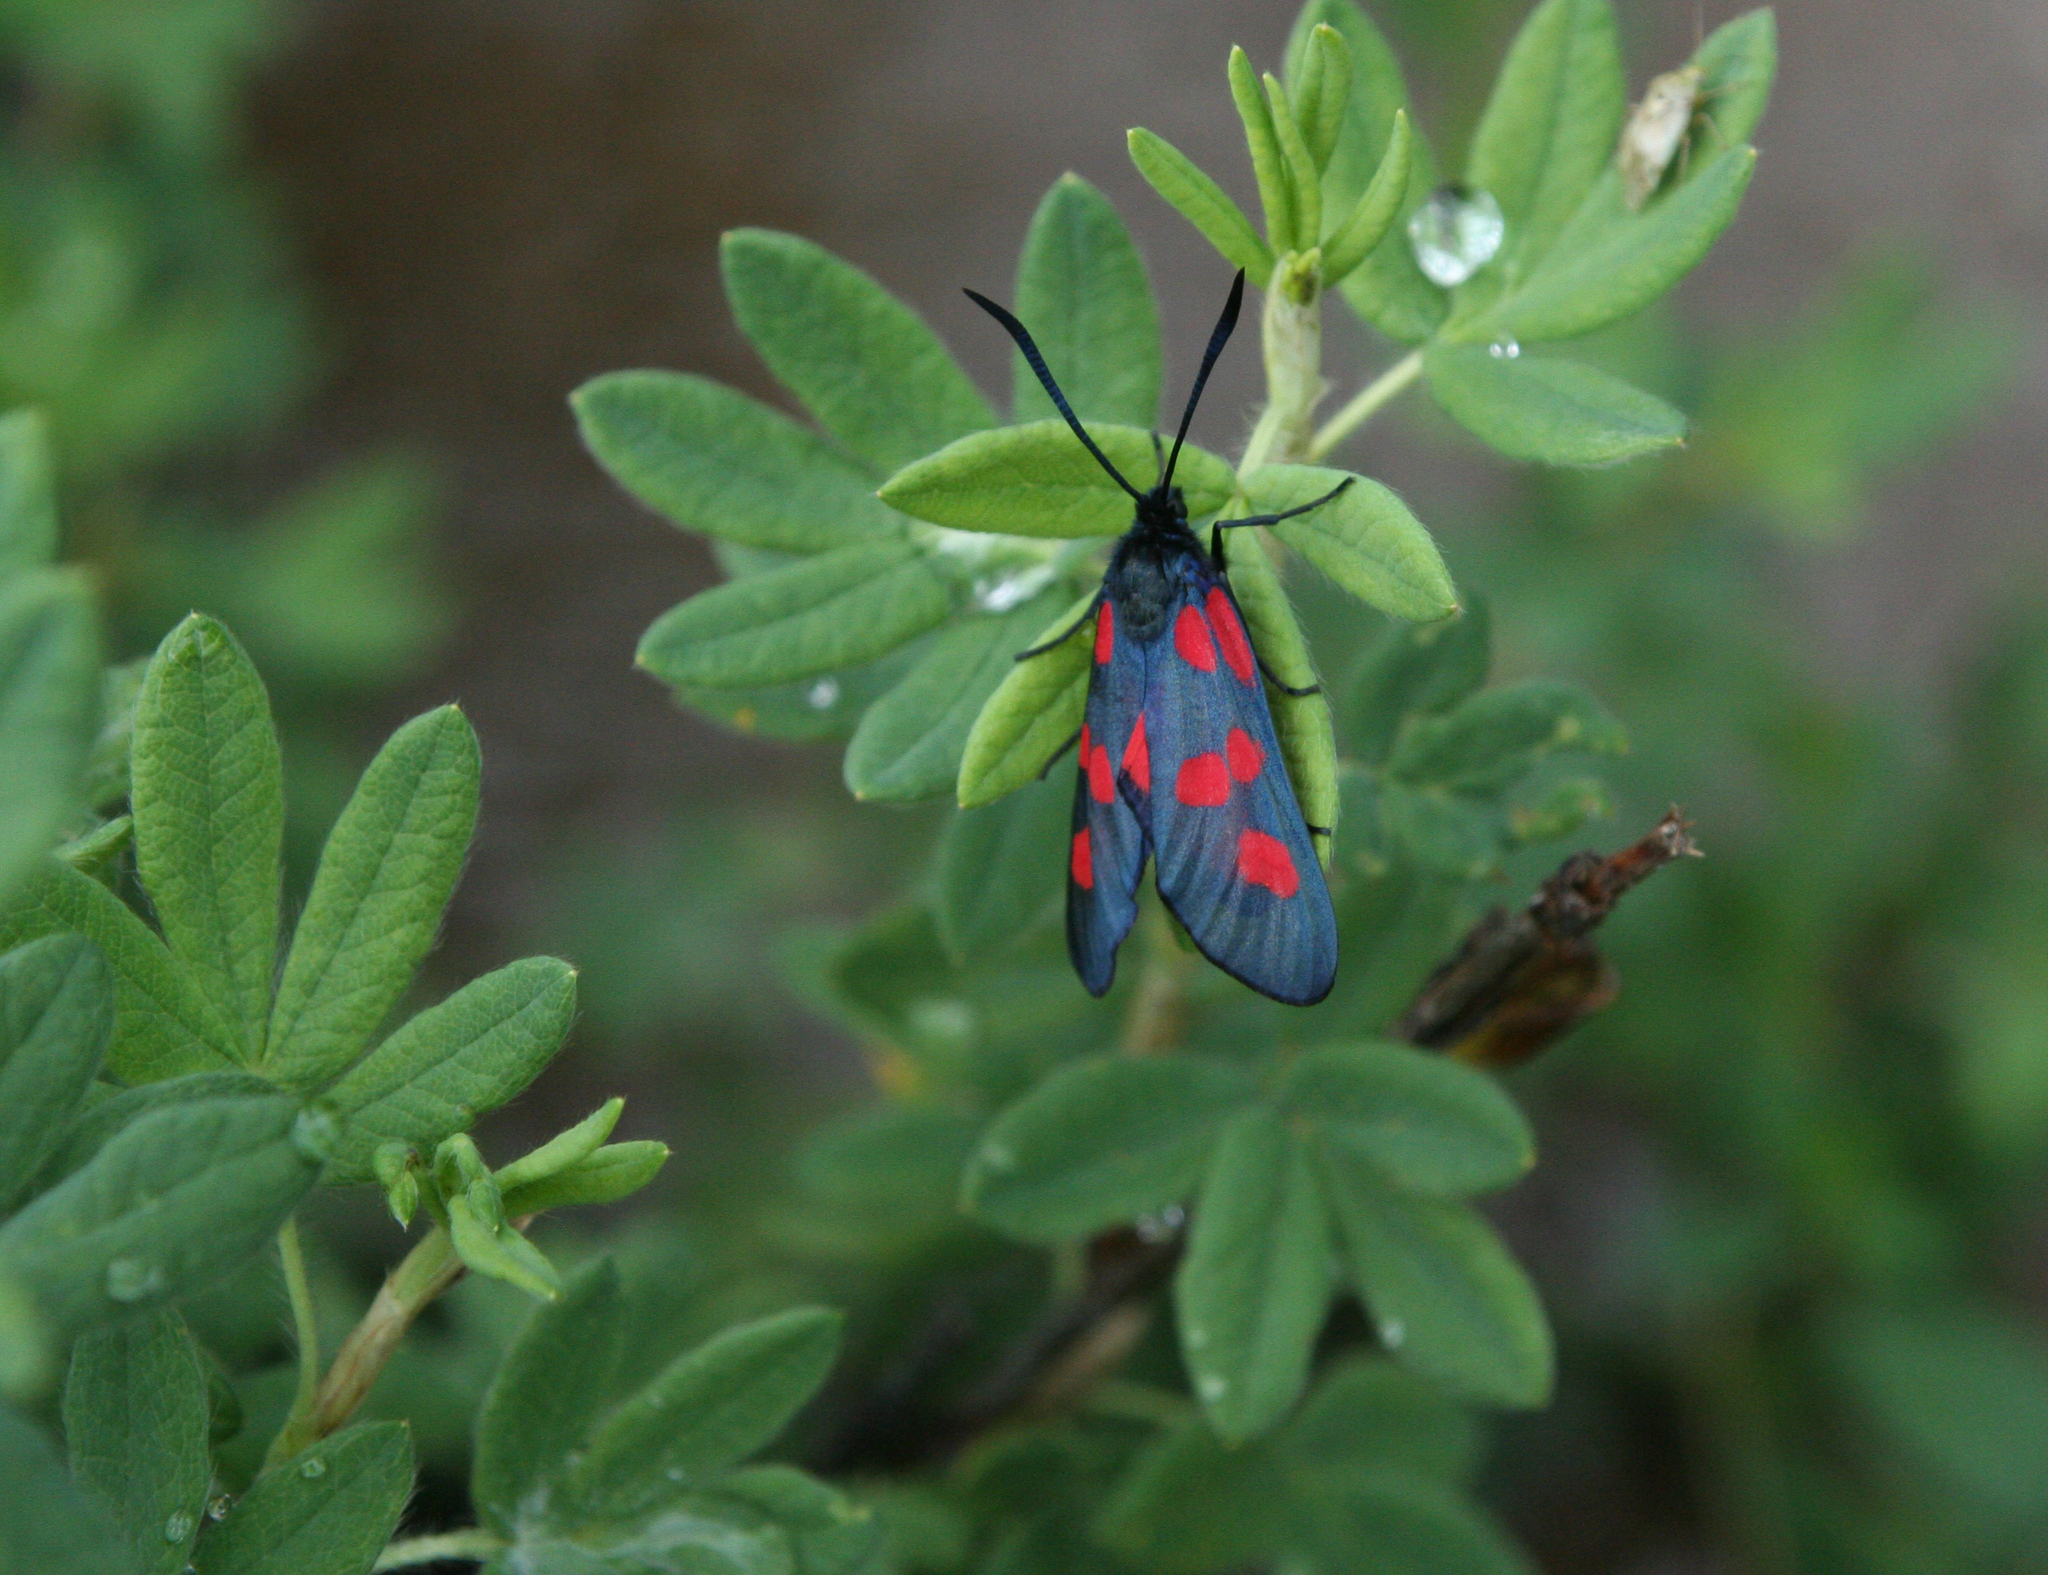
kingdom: Plantae
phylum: Tracheophyta
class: Magnoliopsida
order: Rosales
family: Rosaceae
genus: Dasiphora
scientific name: Dasiphora fruticosa
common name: Shrubby cinquefoil
